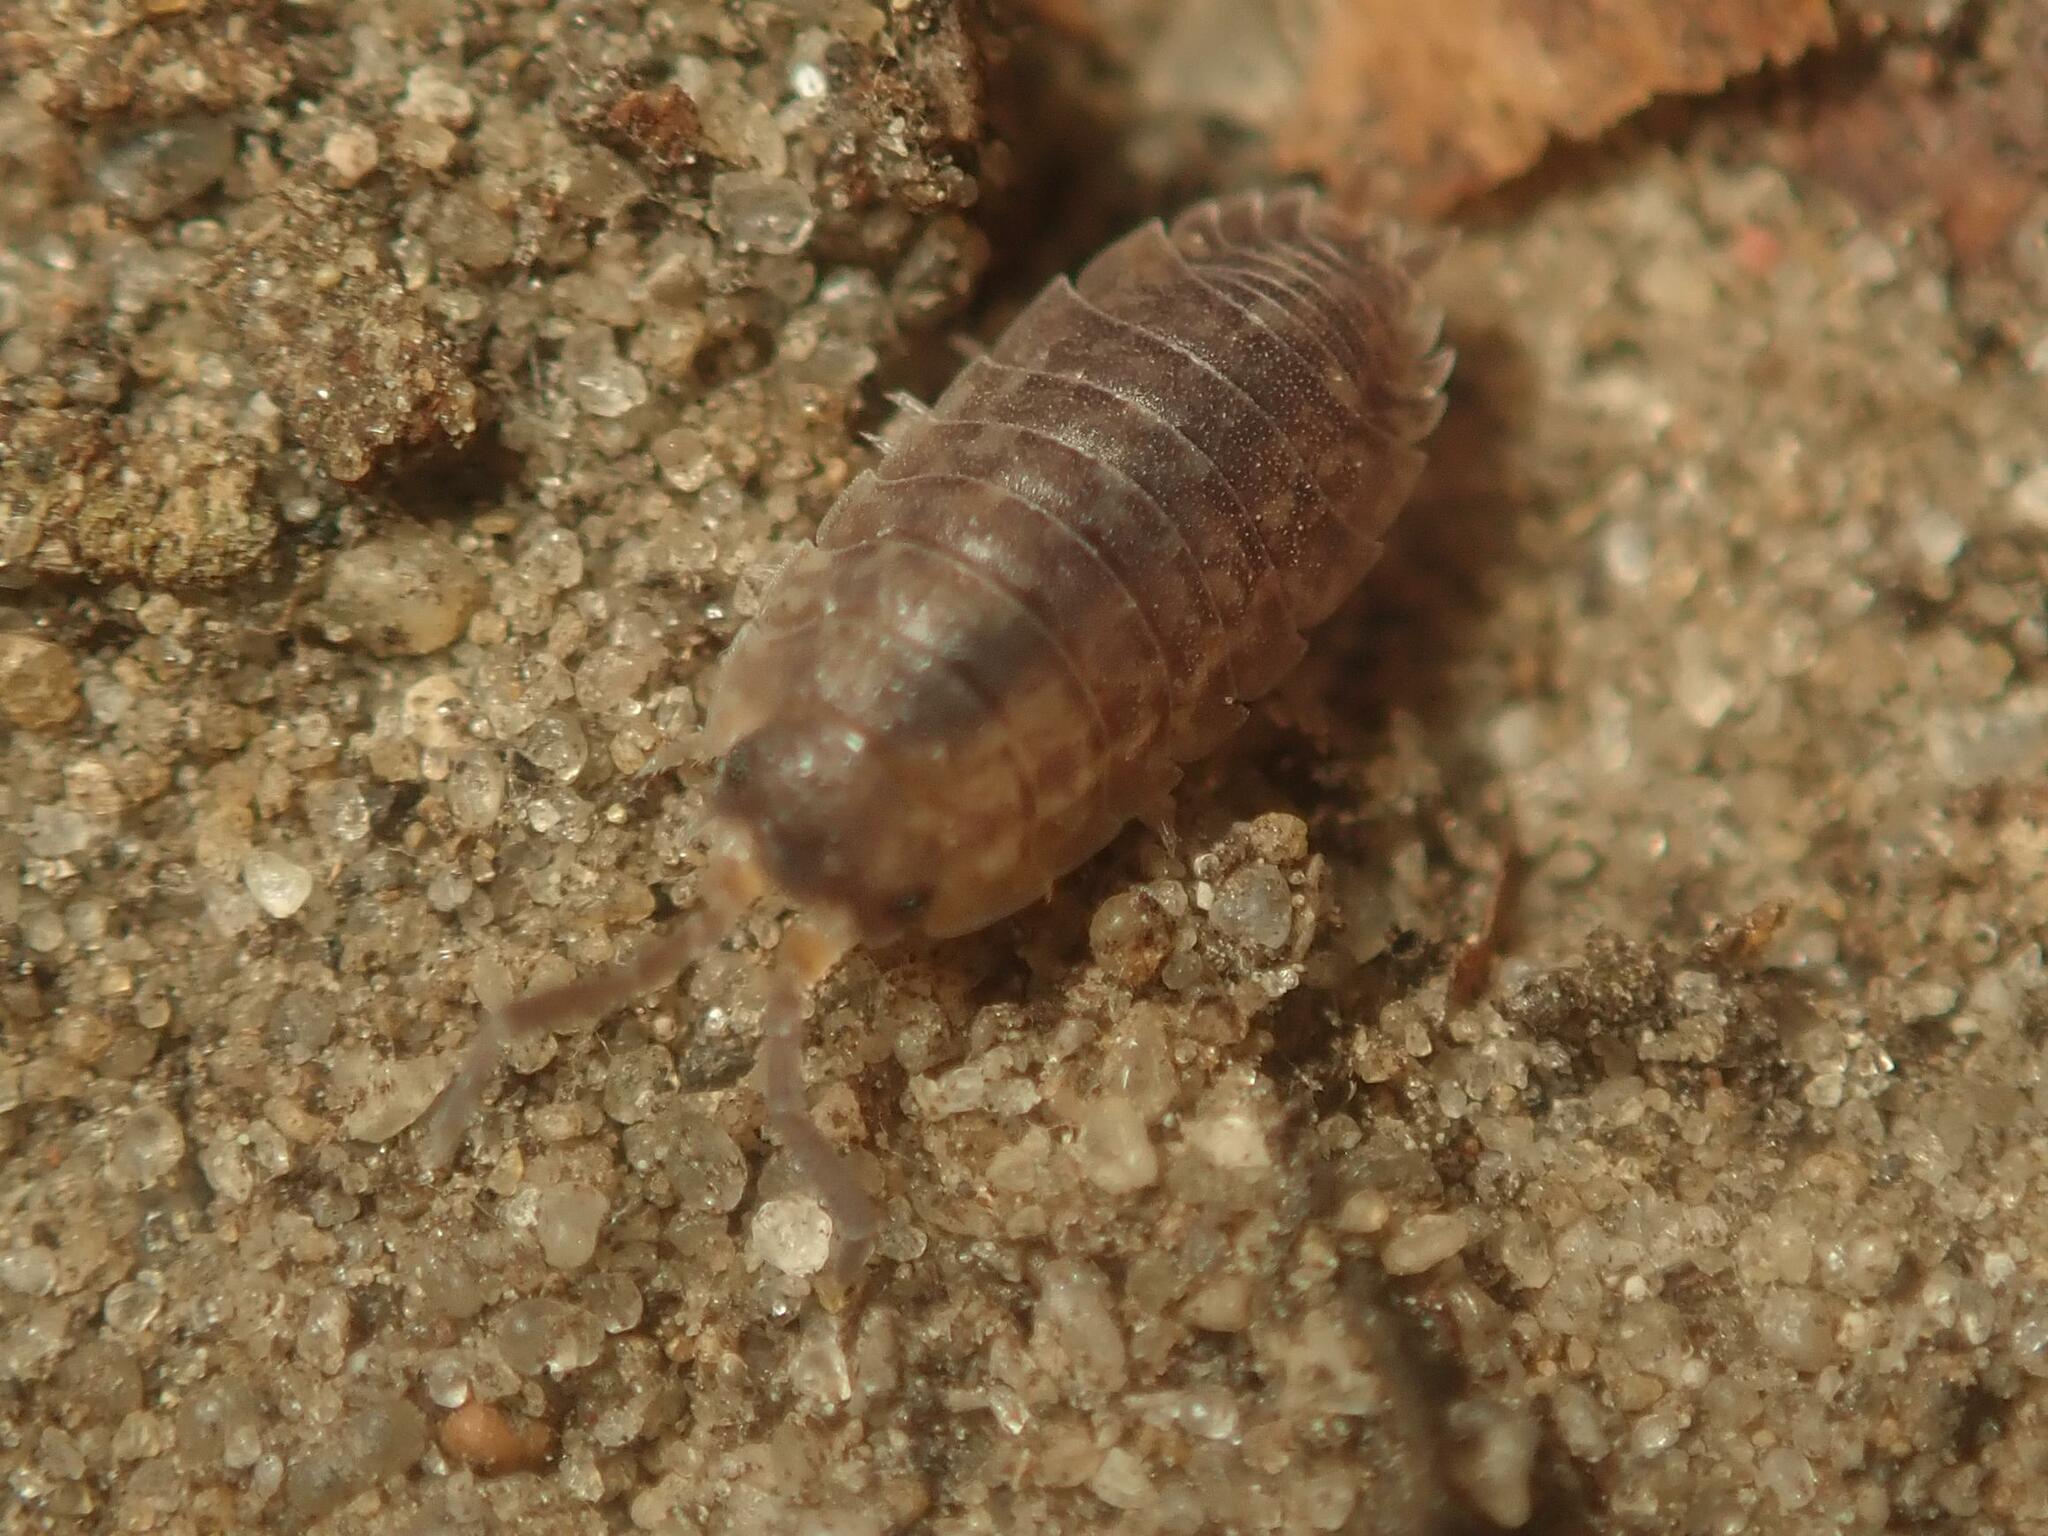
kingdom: Animalia
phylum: Arthropoda
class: Malacostraca
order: Isopoda
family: Porcellionidae
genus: Porcellio
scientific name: Porcellio scaber
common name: Common rough woodlouse
